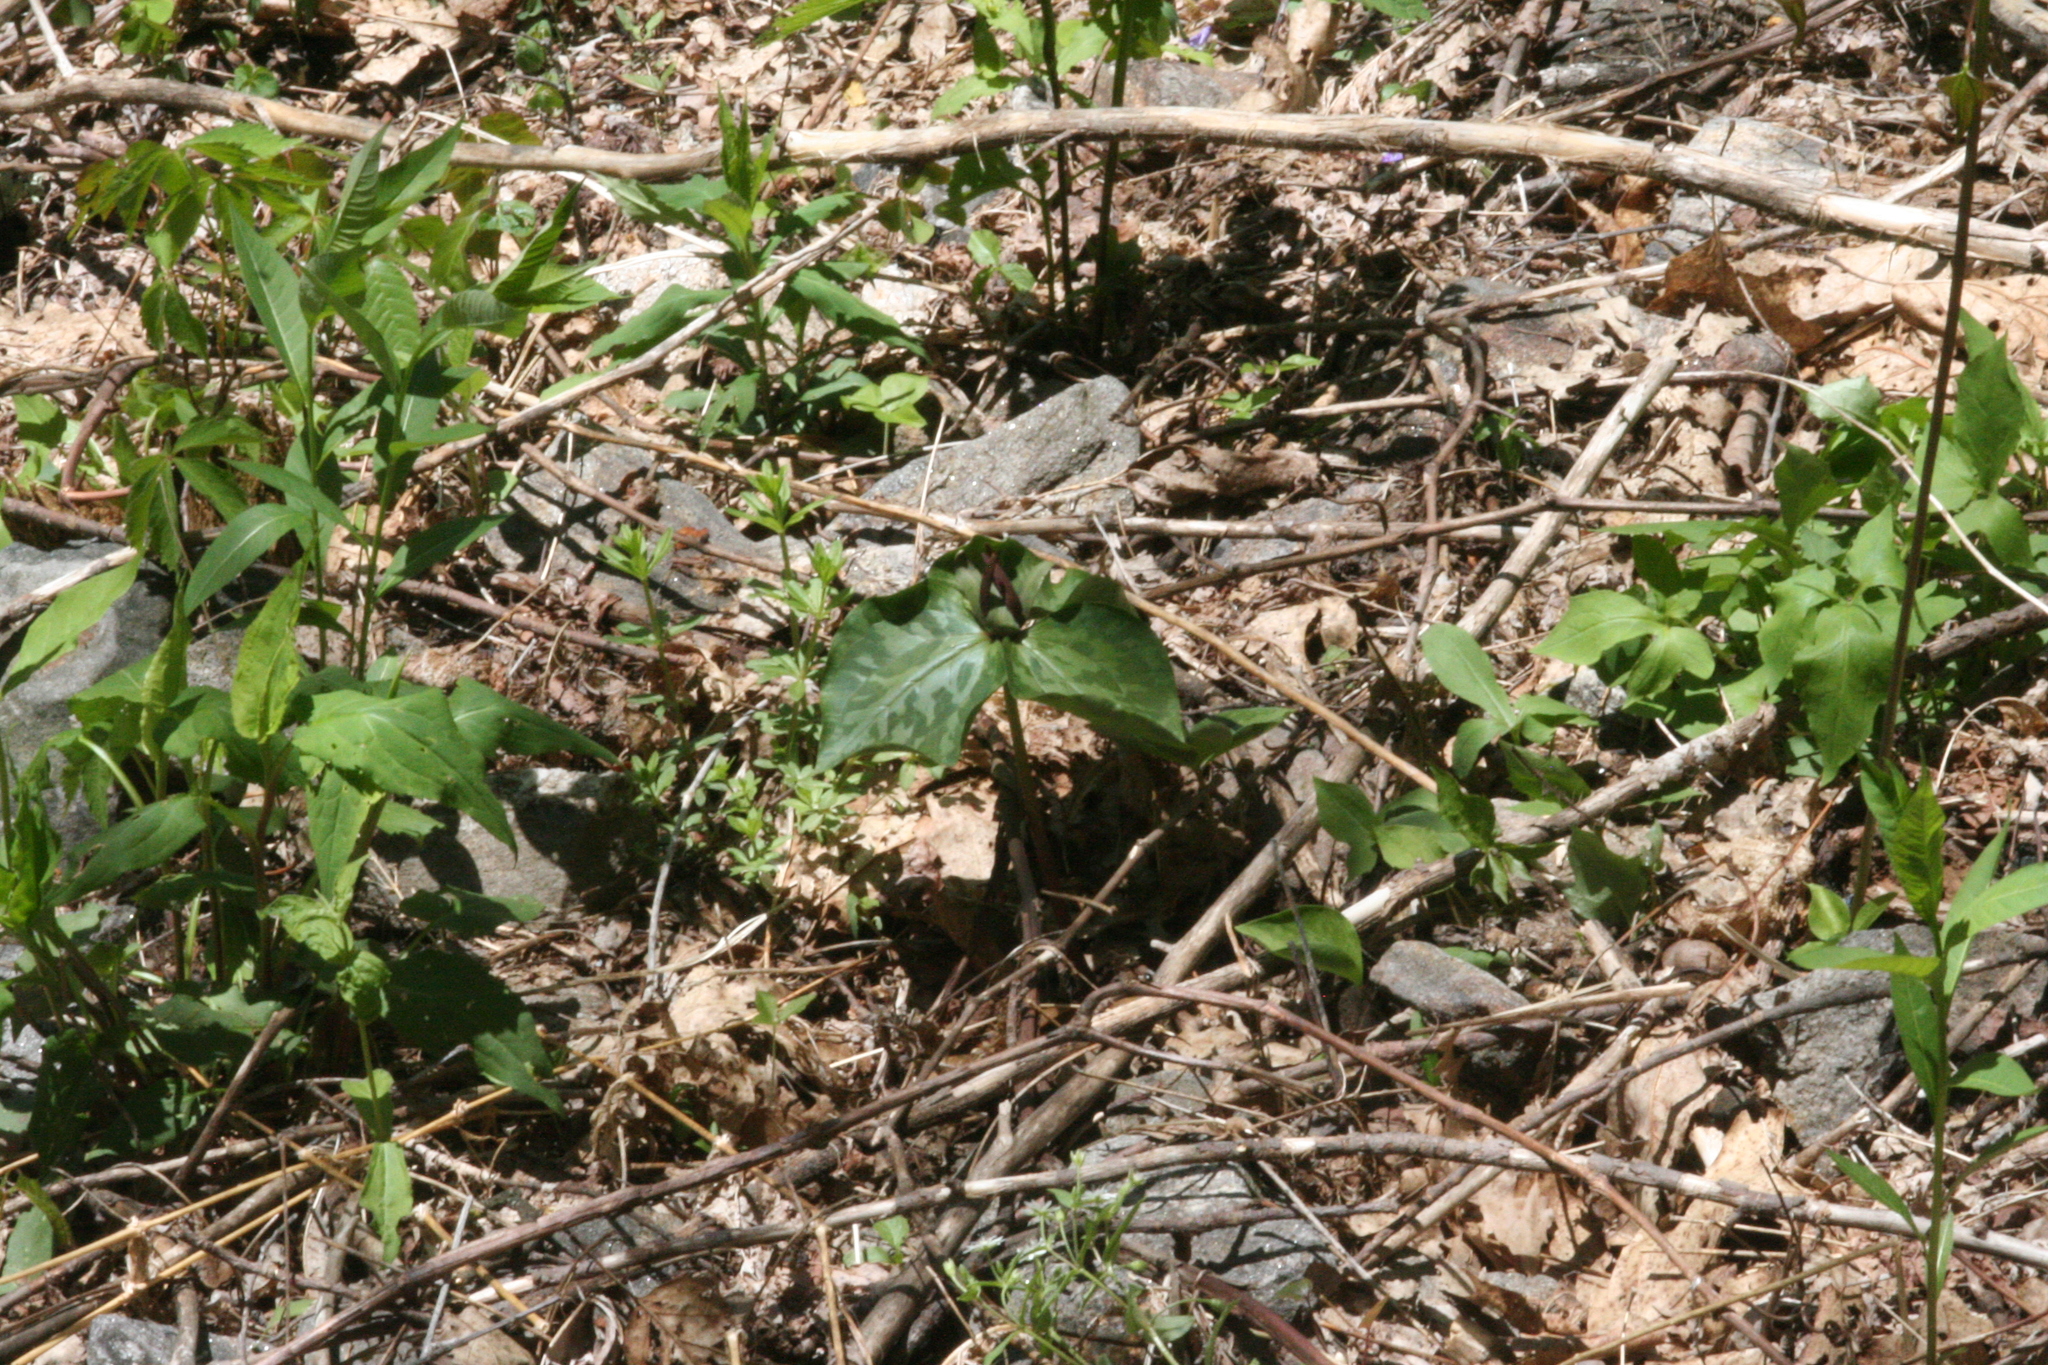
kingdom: Plantae
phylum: Tracheophyta
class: Liliopsida
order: Liliales
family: Melanthiaceae
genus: Trillium
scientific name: Trillium cuneatum
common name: Cuneate trillium
